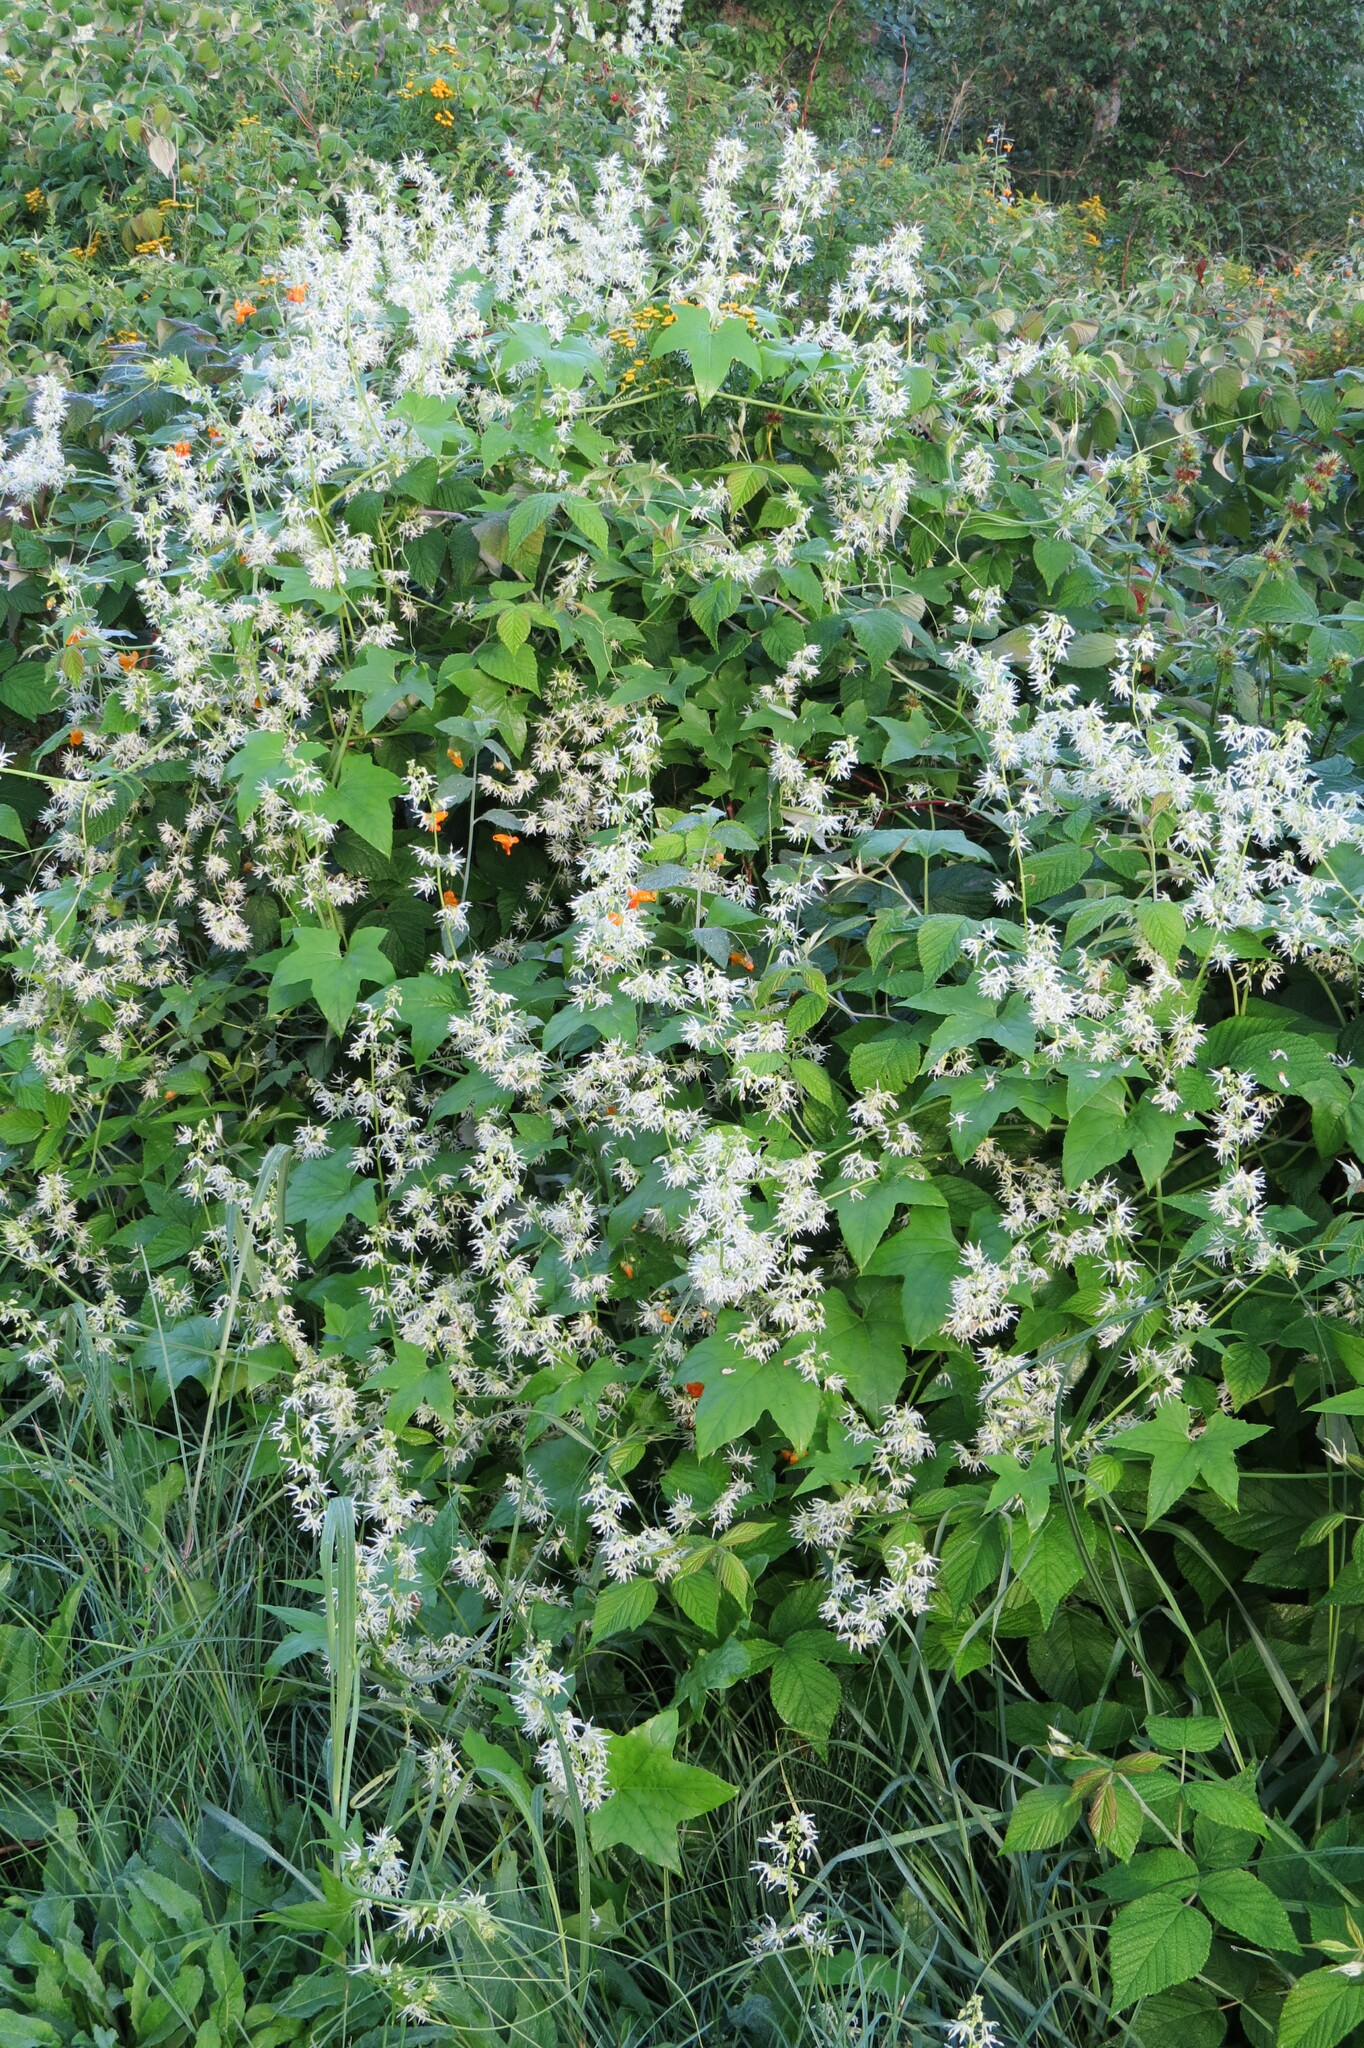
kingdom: Plantae
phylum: Tracheophyta
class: Magnoliopsida
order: Cucurbitales
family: Cucurbitaceae
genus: Echinocystis
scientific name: Echinocystis lobata
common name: Wild cucumber
